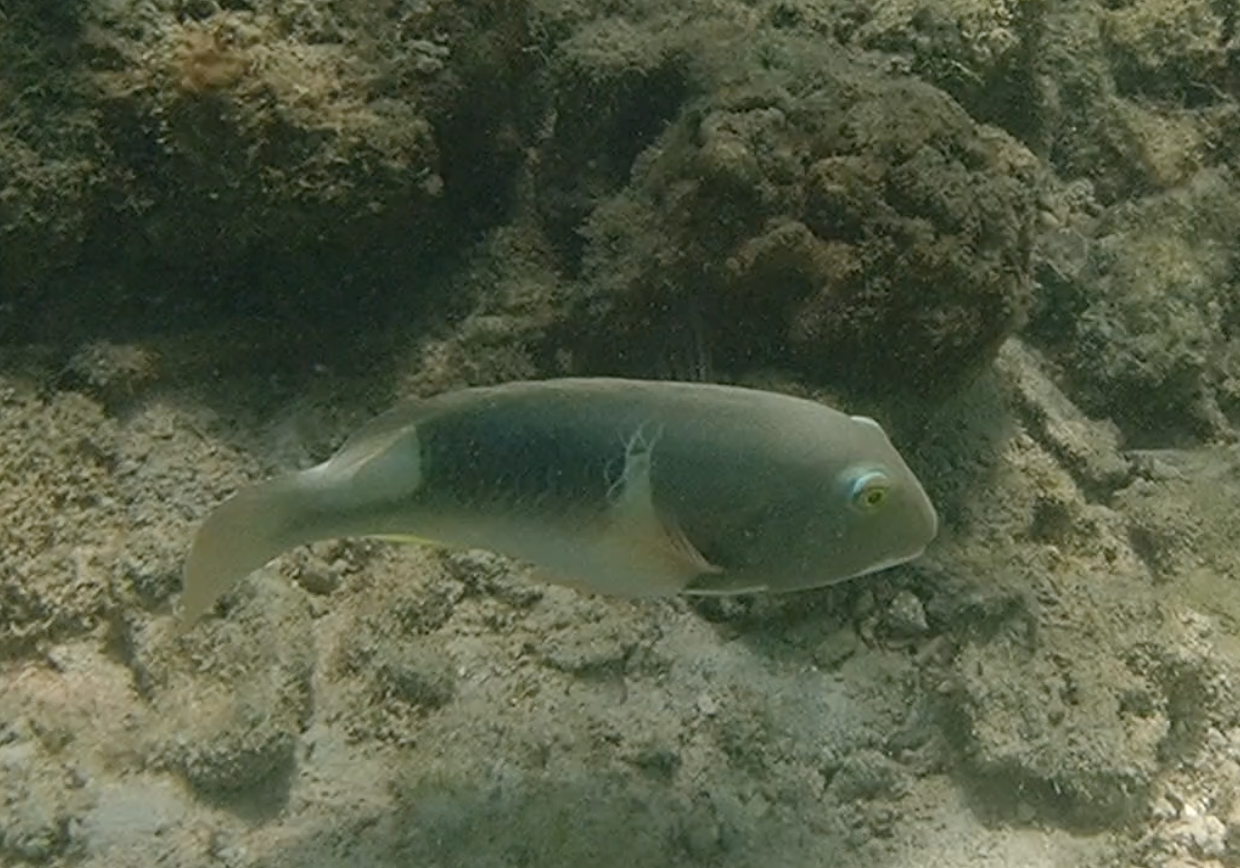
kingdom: Animalia
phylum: Chordata
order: Perciformes
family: Labridae
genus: Choerodon
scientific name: Choerodon anchorago
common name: Anchor tuskfish
